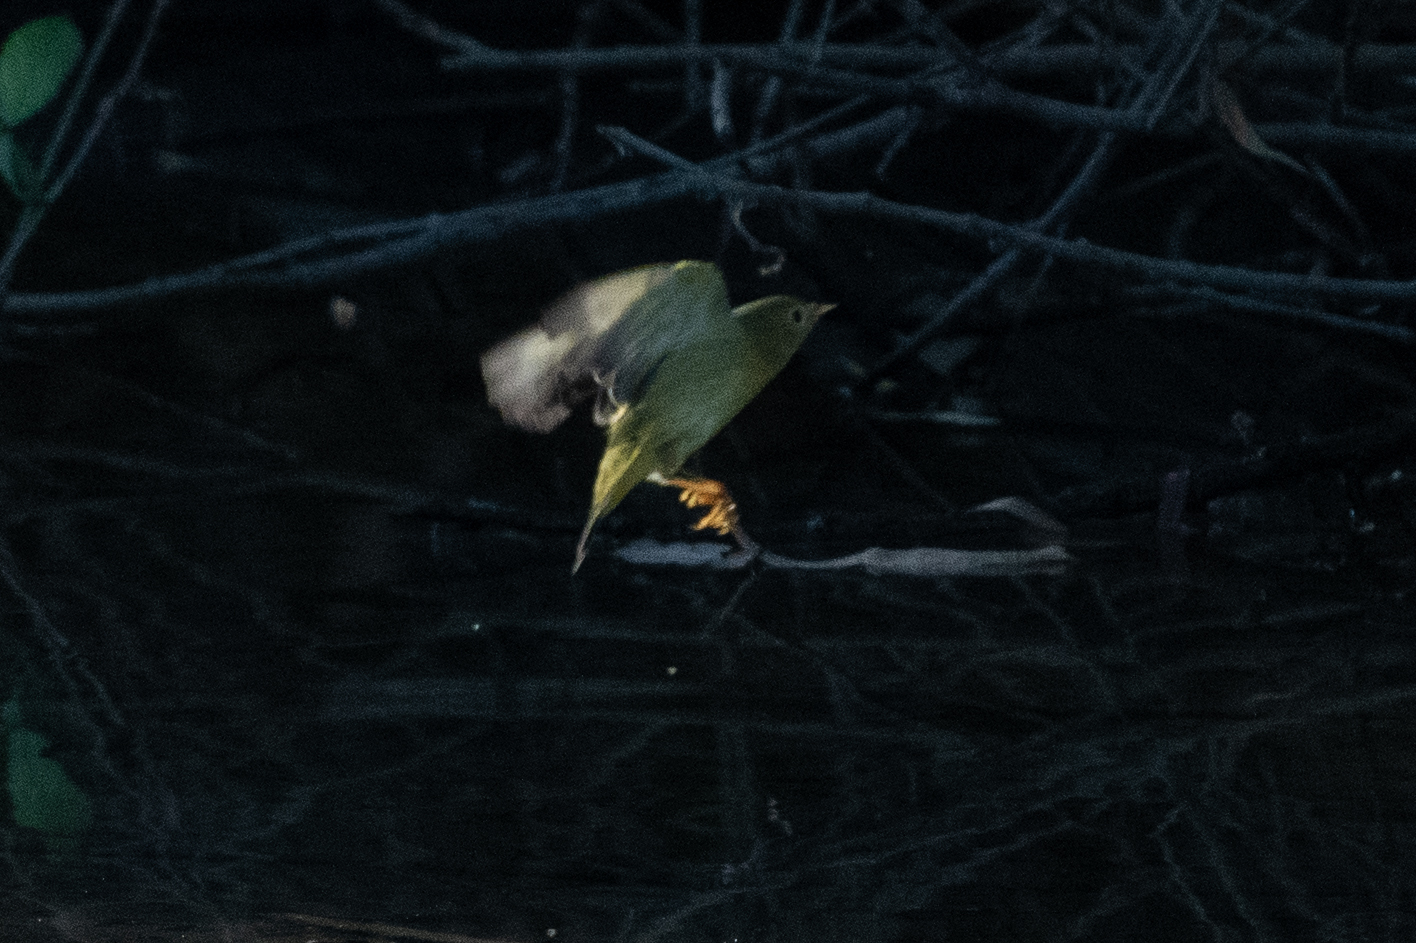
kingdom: Animalia
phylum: Chordata
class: Aves
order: Passeriformes
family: Parulidae
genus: Setophaga
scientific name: Setophaga petechia
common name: Yellow warbler
